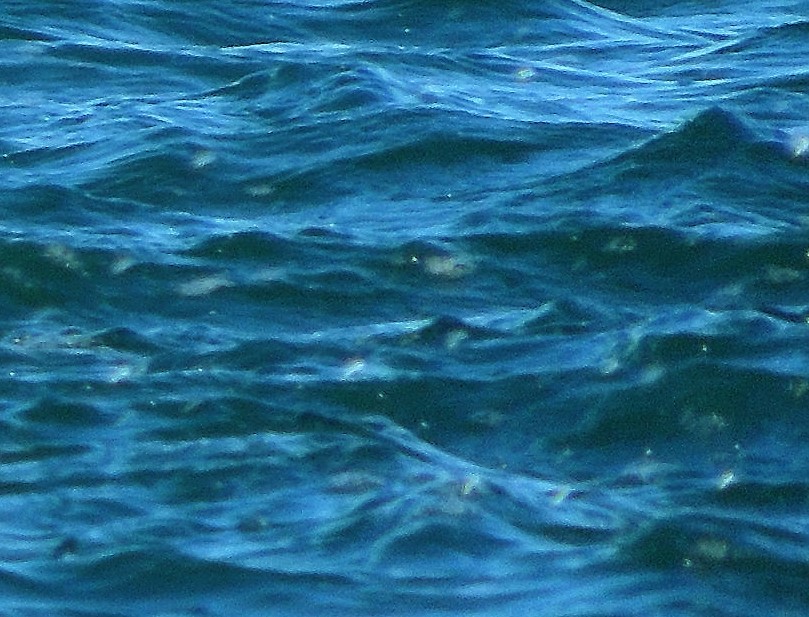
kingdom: Animalia
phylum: Chordata
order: Clupeiformes
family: Clupeidae
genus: Brevoortia
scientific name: Brevoortia tyrannus
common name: Atlantic menhaden
